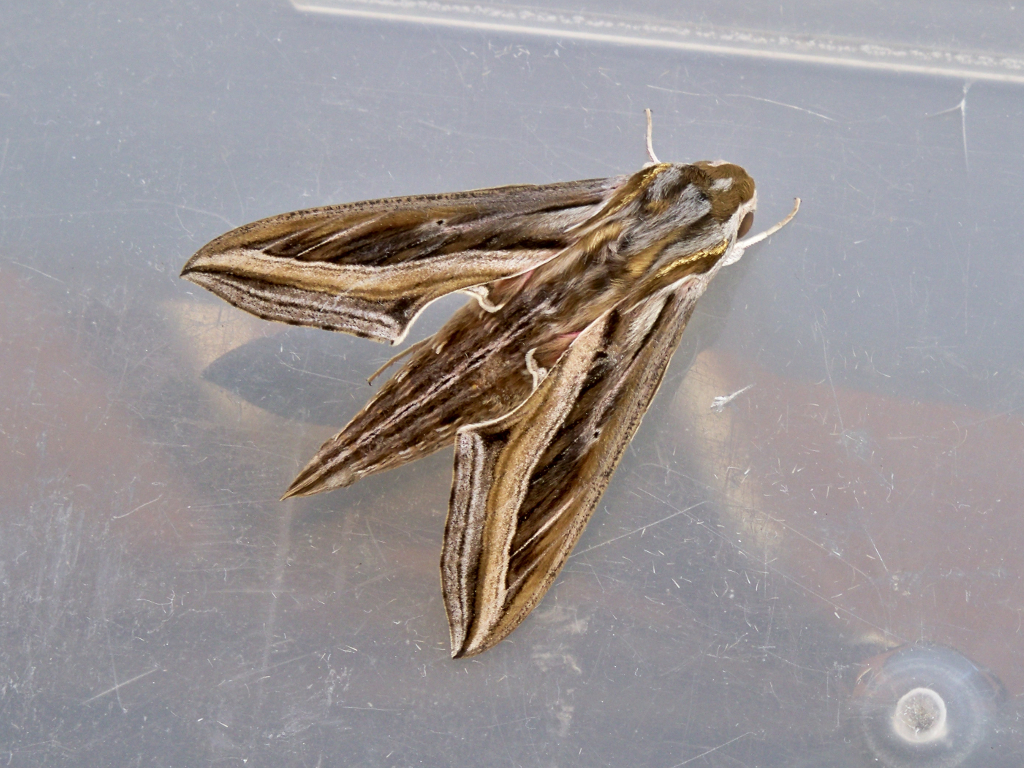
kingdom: Animalia
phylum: Arthropoda
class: Insecta
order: Lepidoptera
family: Sphingidae
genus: Hippotion
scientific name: Hippotion celerio
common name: Silver-striped hawk-moth
